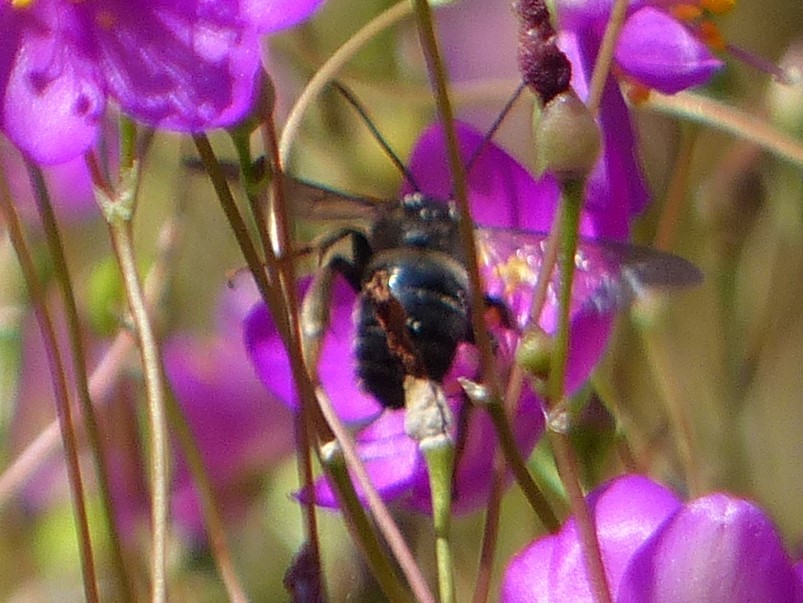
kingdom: Animalia
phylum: Arthropoda
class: Insecta
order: Hymenoptera
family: Apidae
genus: Melissodes
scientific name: Melissodes bimaculatus
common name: Two-spotted long-horned bee
